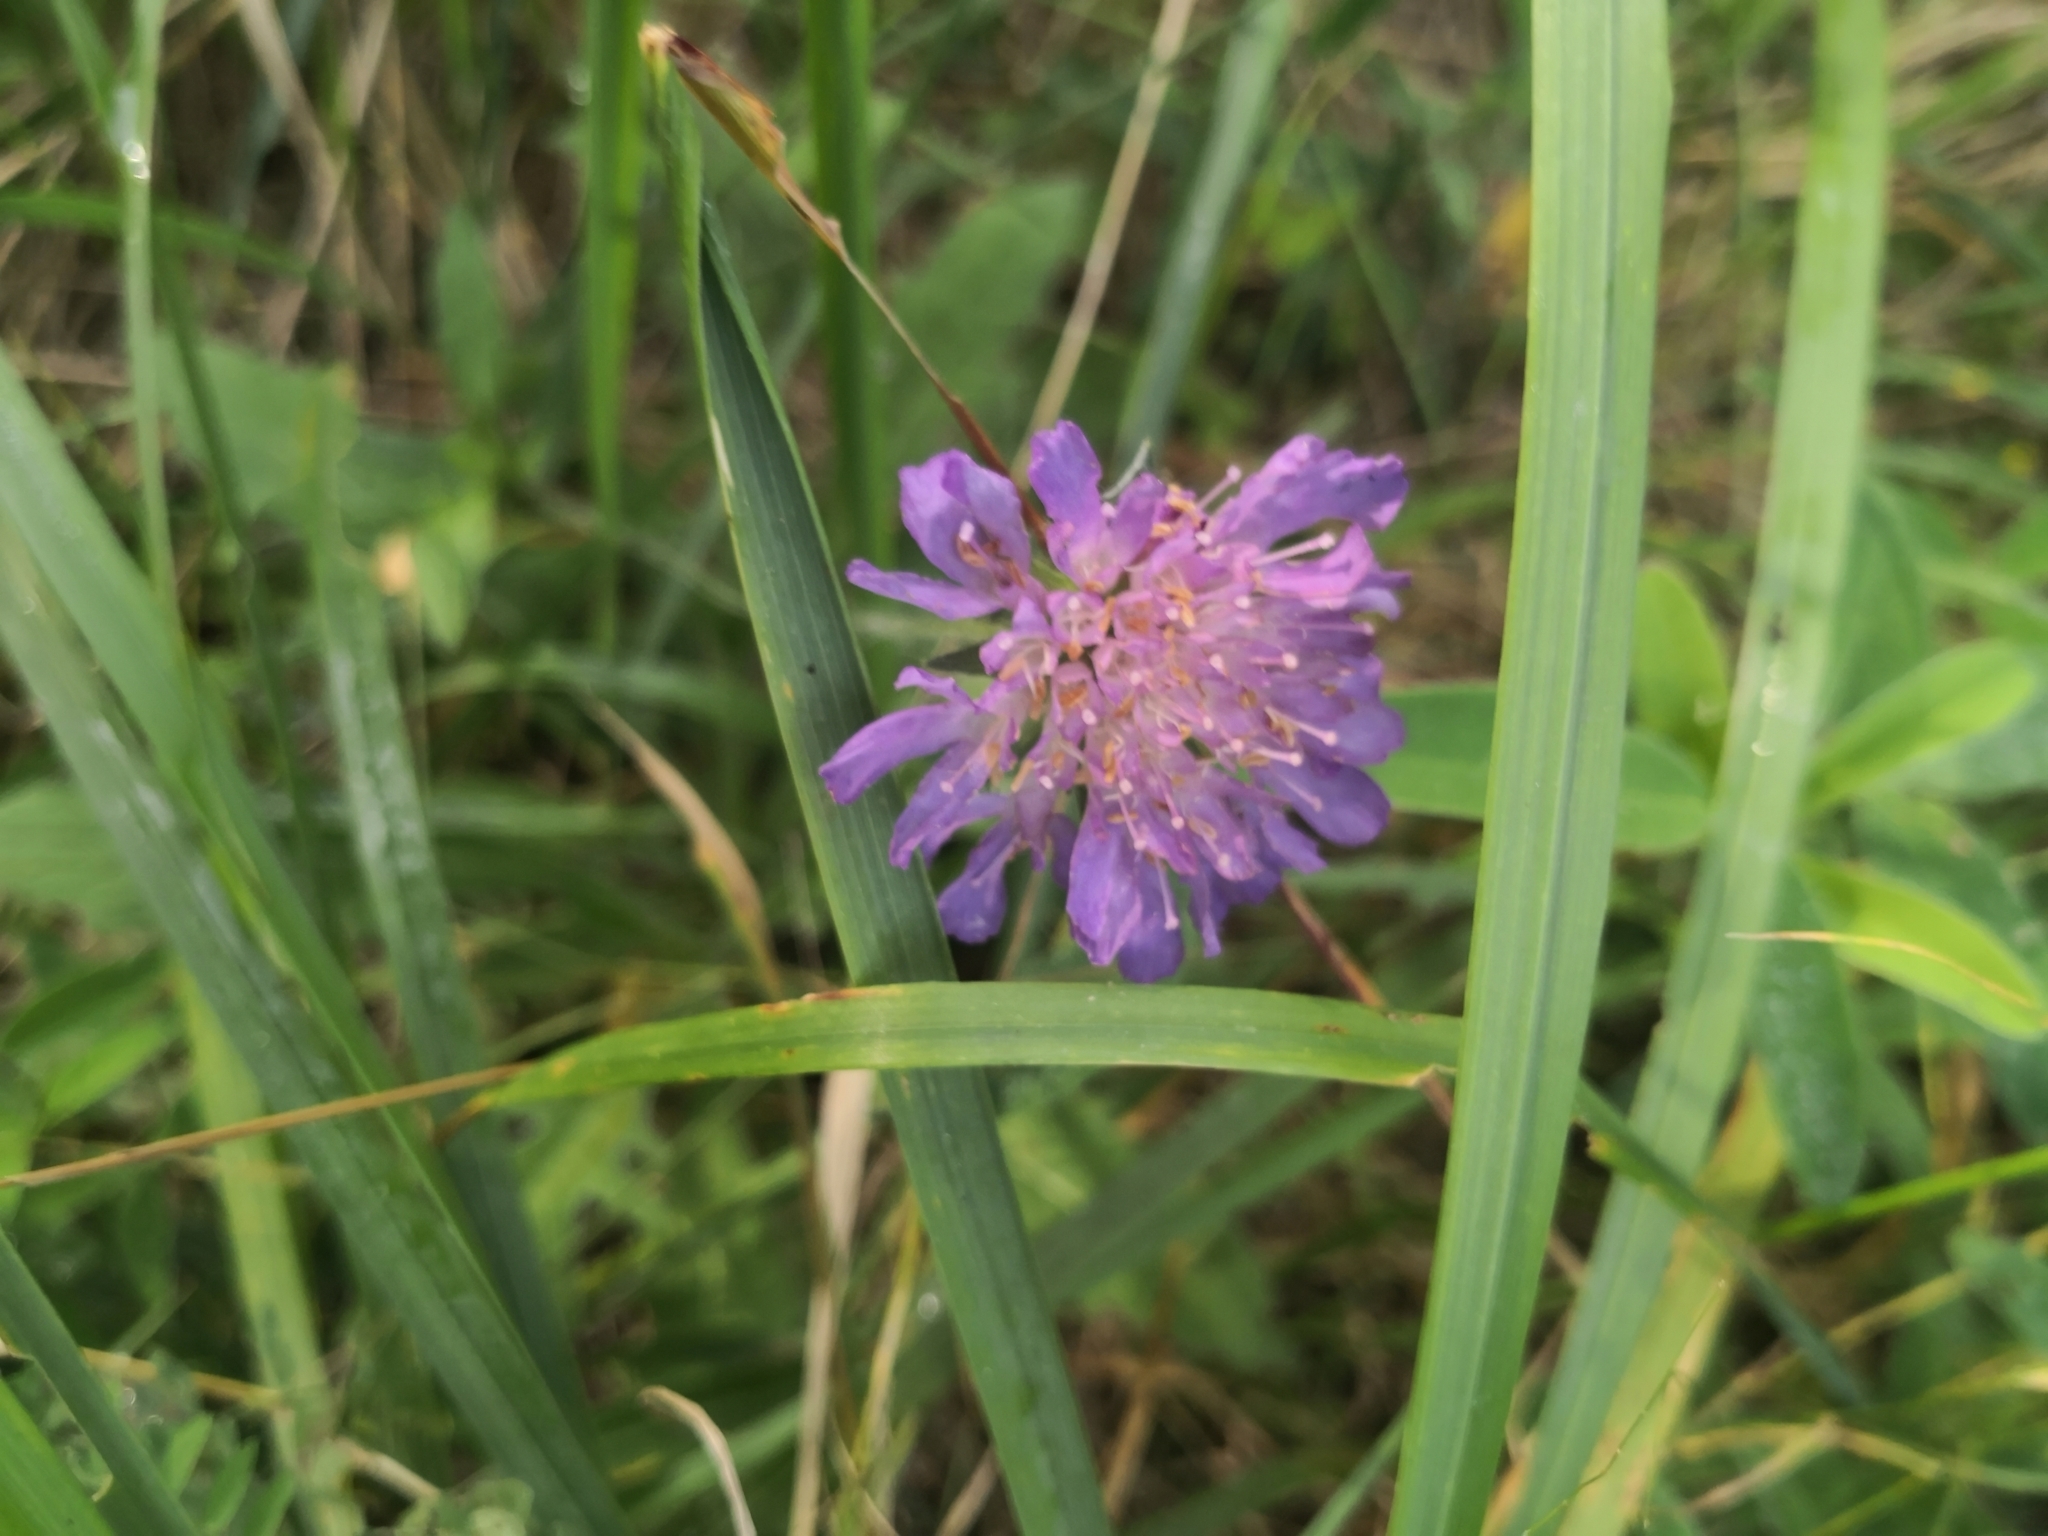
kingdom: Plantae
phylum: Tracheophyta
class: Magnoliopsida
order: Dipsacales
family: Caprifoliaceae
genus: Knautia
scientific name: Knautia arvensis
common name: Field scabiosa
